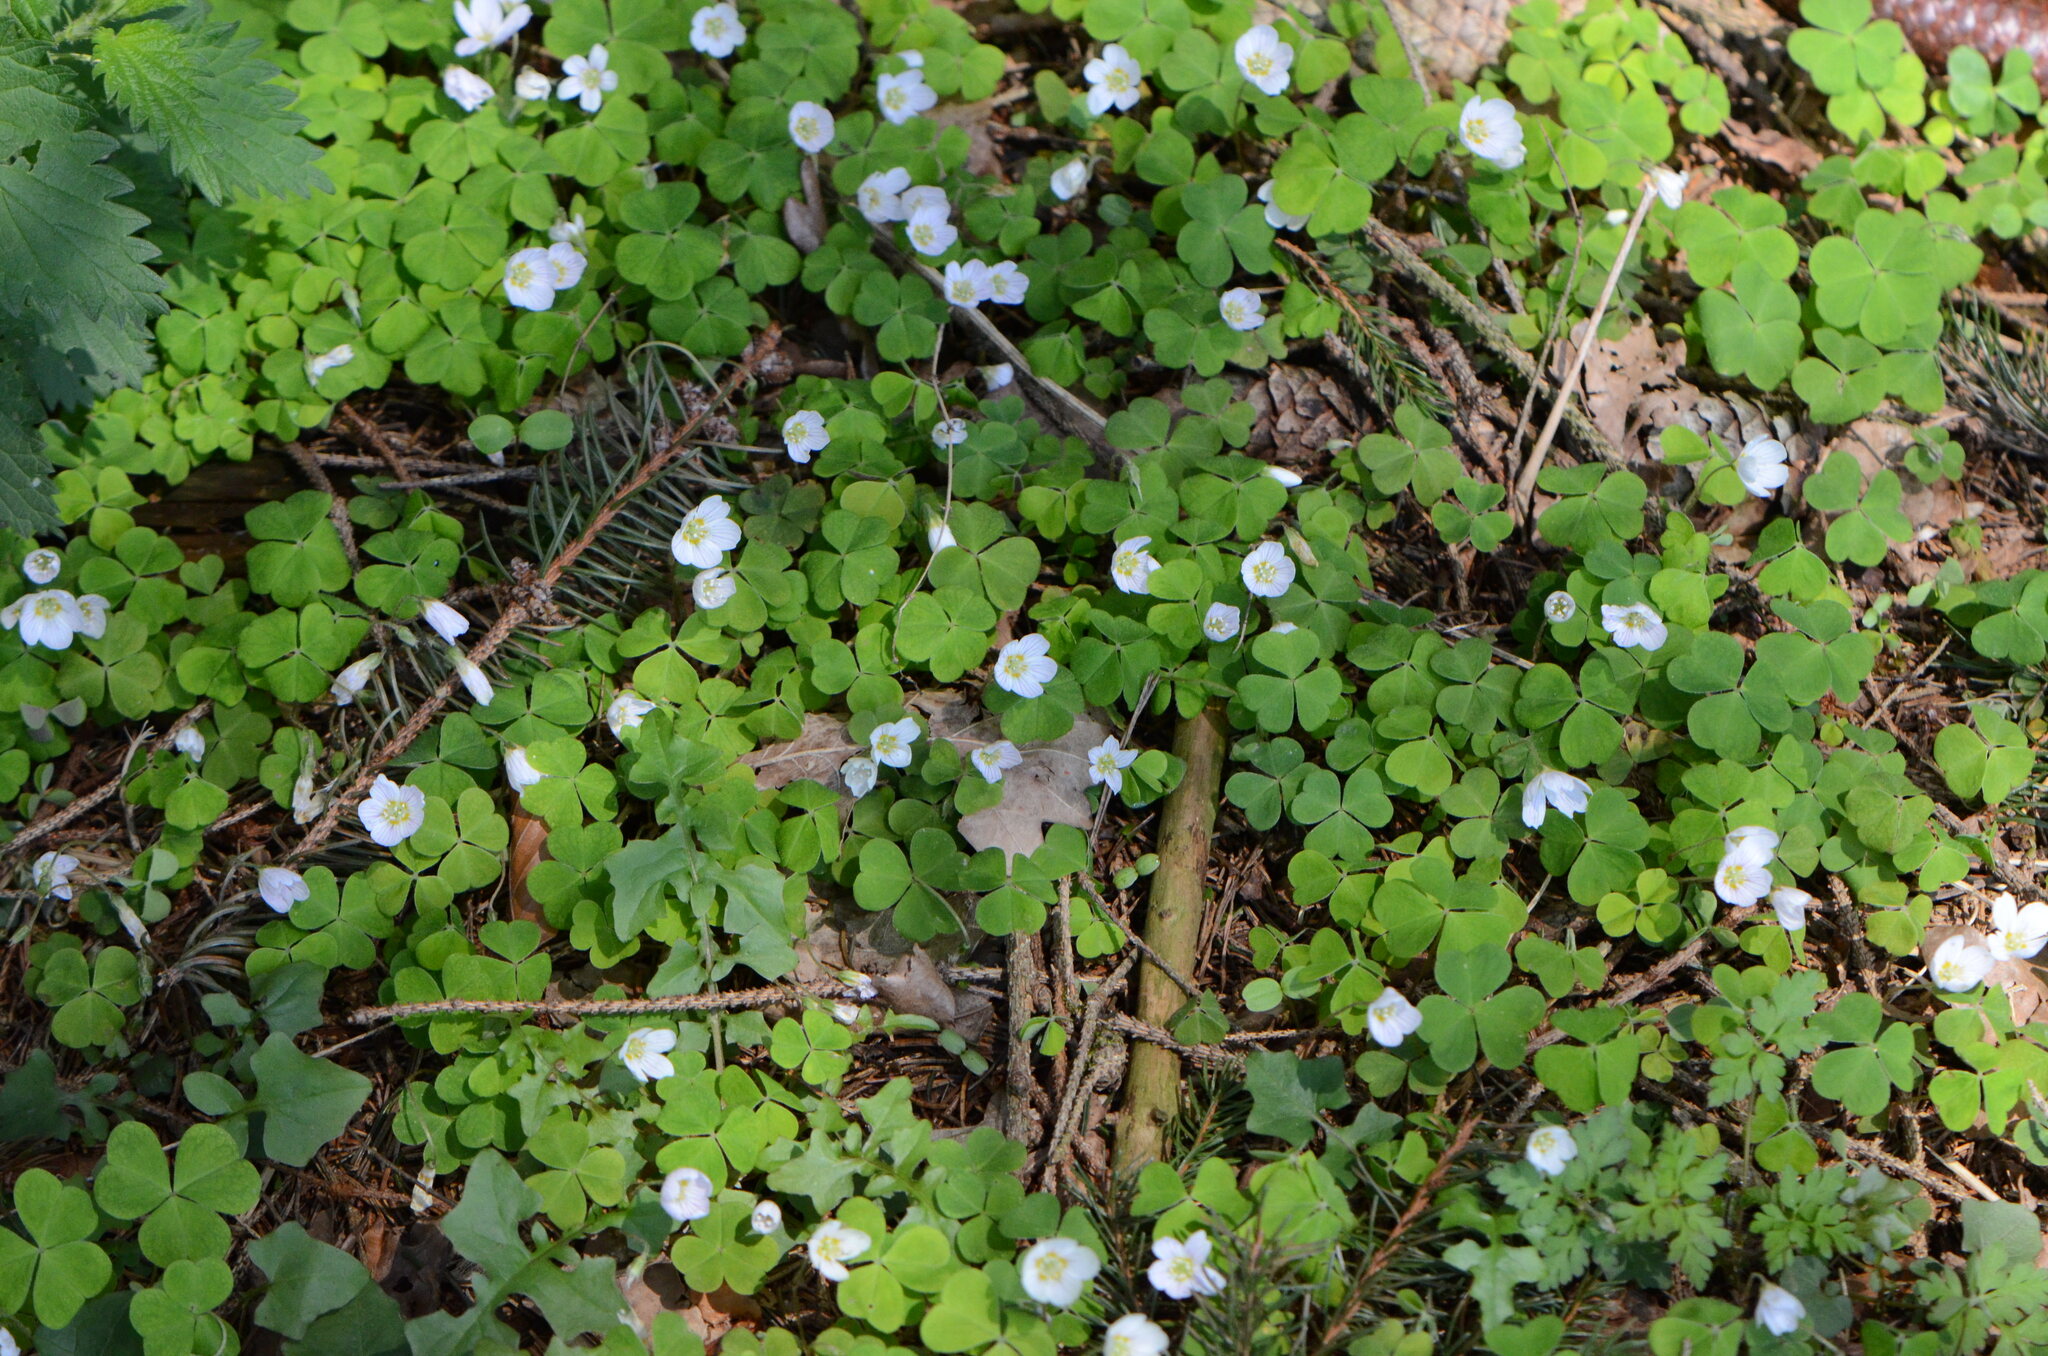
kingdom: Plantae
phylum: Tracheophyta
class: Magnoliopsida
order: Oxalidales
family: Oxalidaceae
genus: Oxalis
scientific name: Oxalis acetosella
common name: Wood-sorrel
